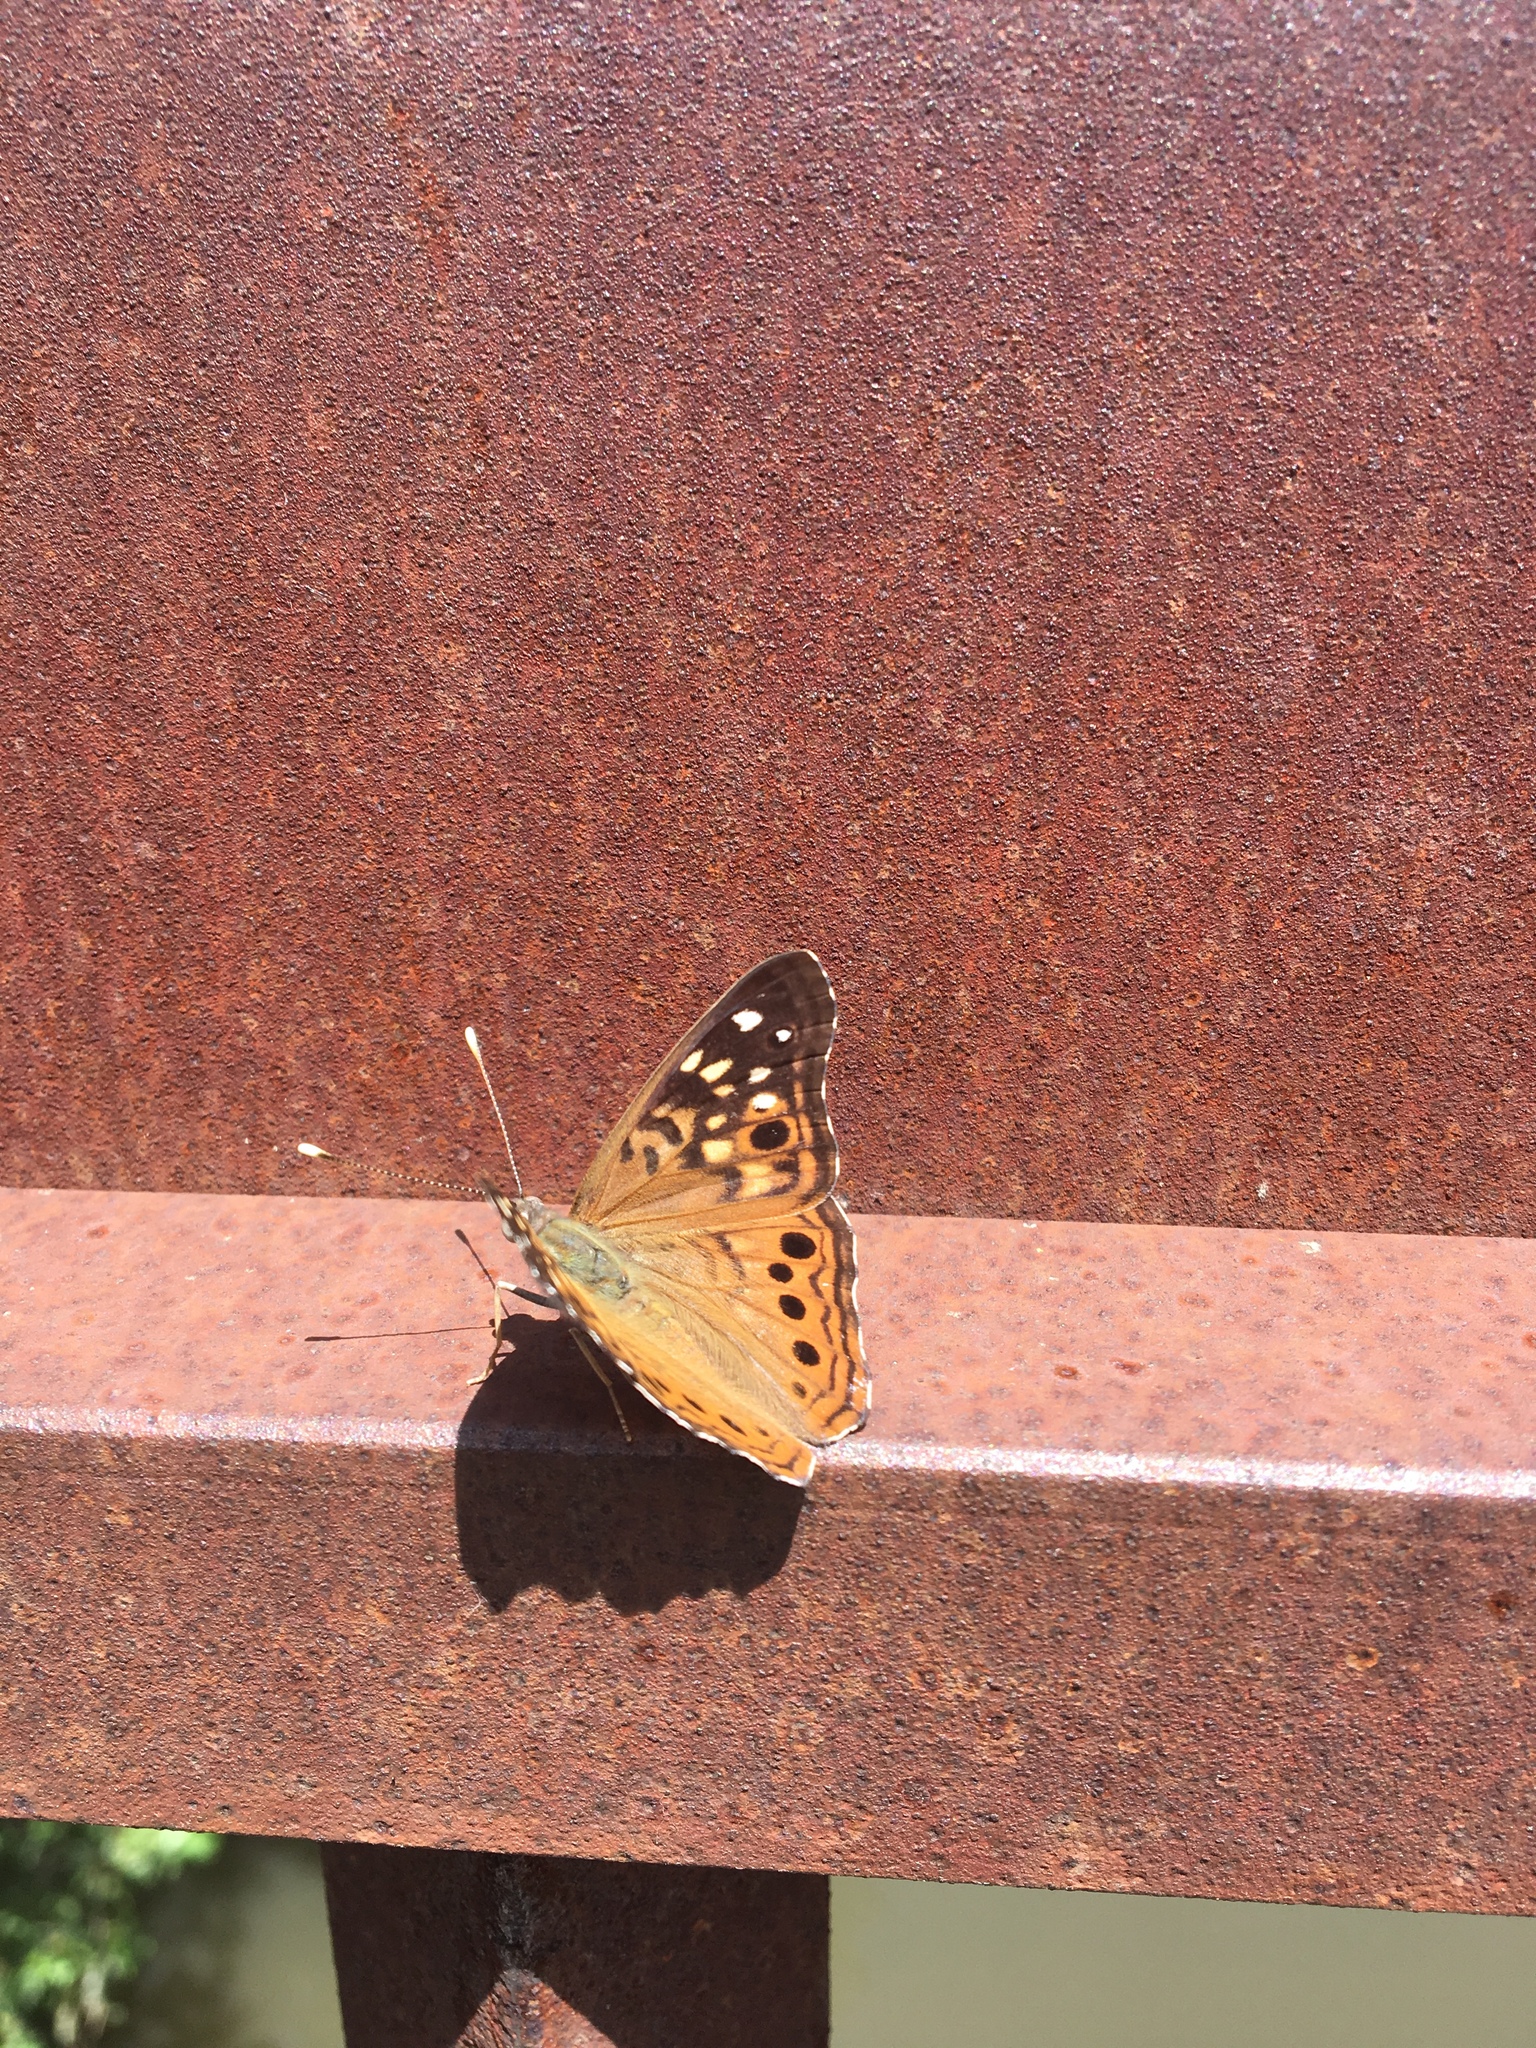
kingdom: Animalia
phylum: Arthropoda
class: Insecta
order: Lepidoptera
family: Nymphalidae
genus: Asterocampa
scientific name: Asterocampa celtis
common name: Hackberry emperor
